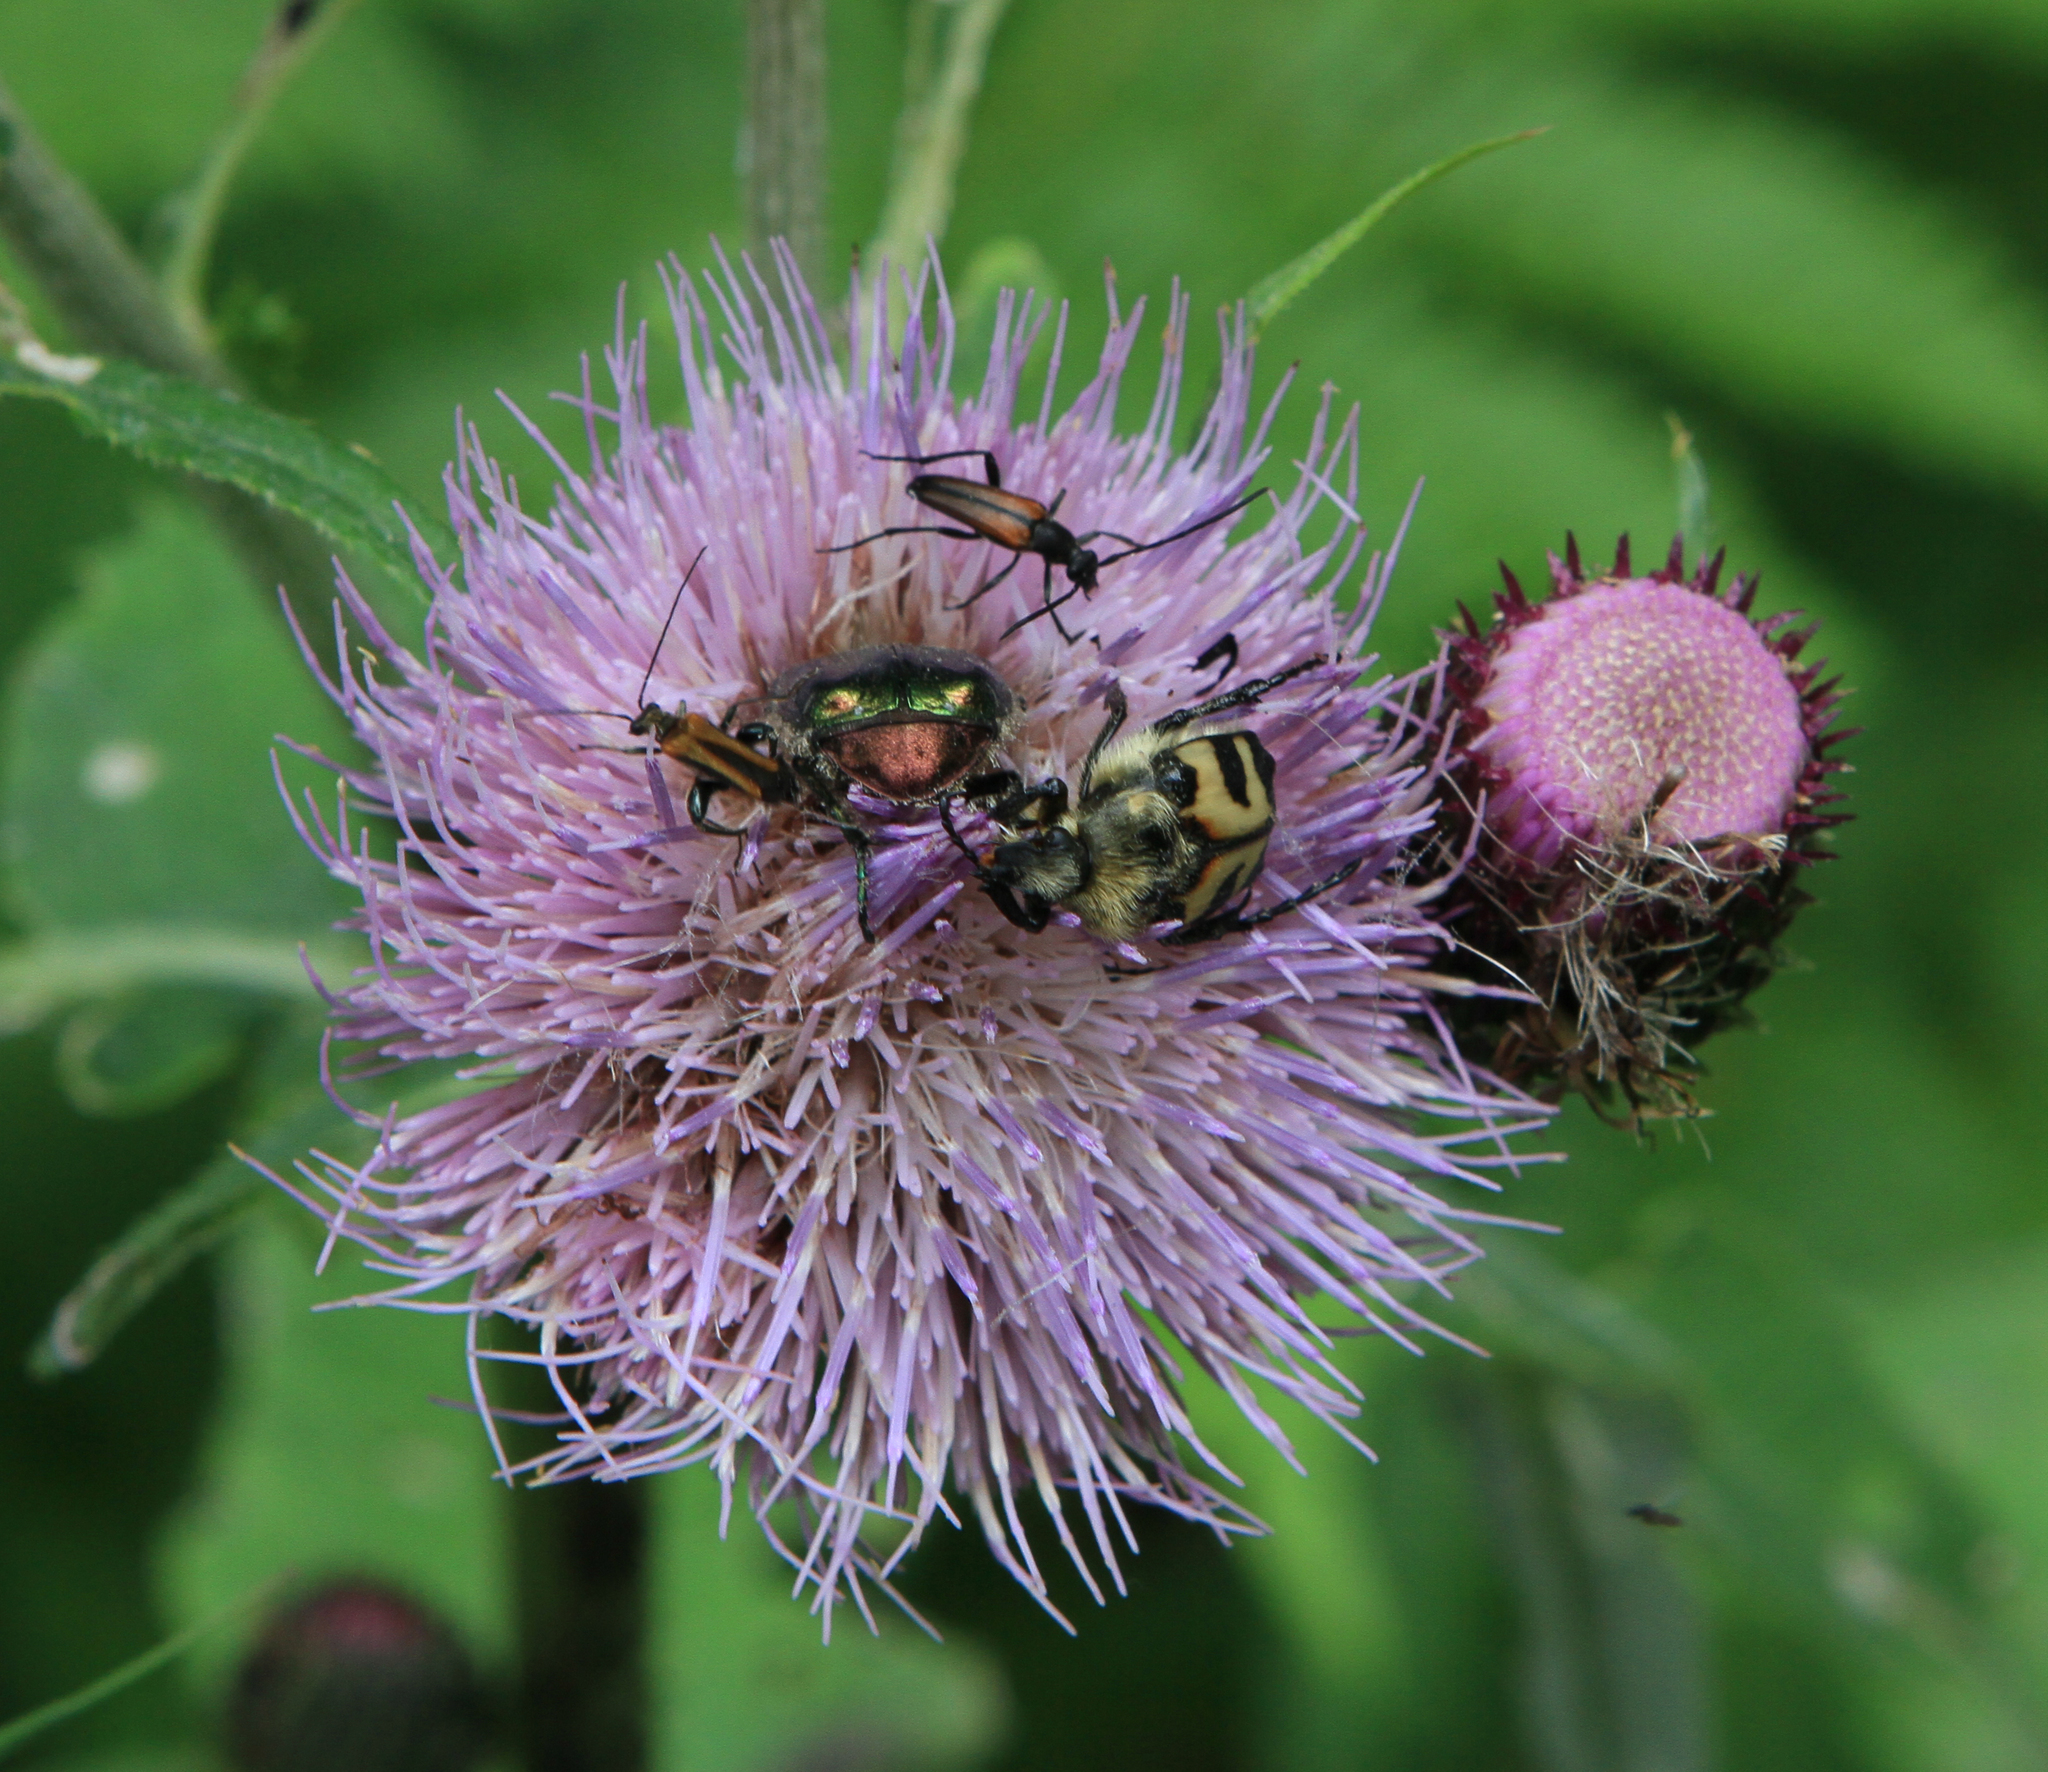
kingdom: Animalia
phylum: Arthropoda
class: Insecta
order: Coleoptera
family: Scarabaeidae
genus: Trichius
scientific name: Trichius fasciatus
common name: Bee beetle
